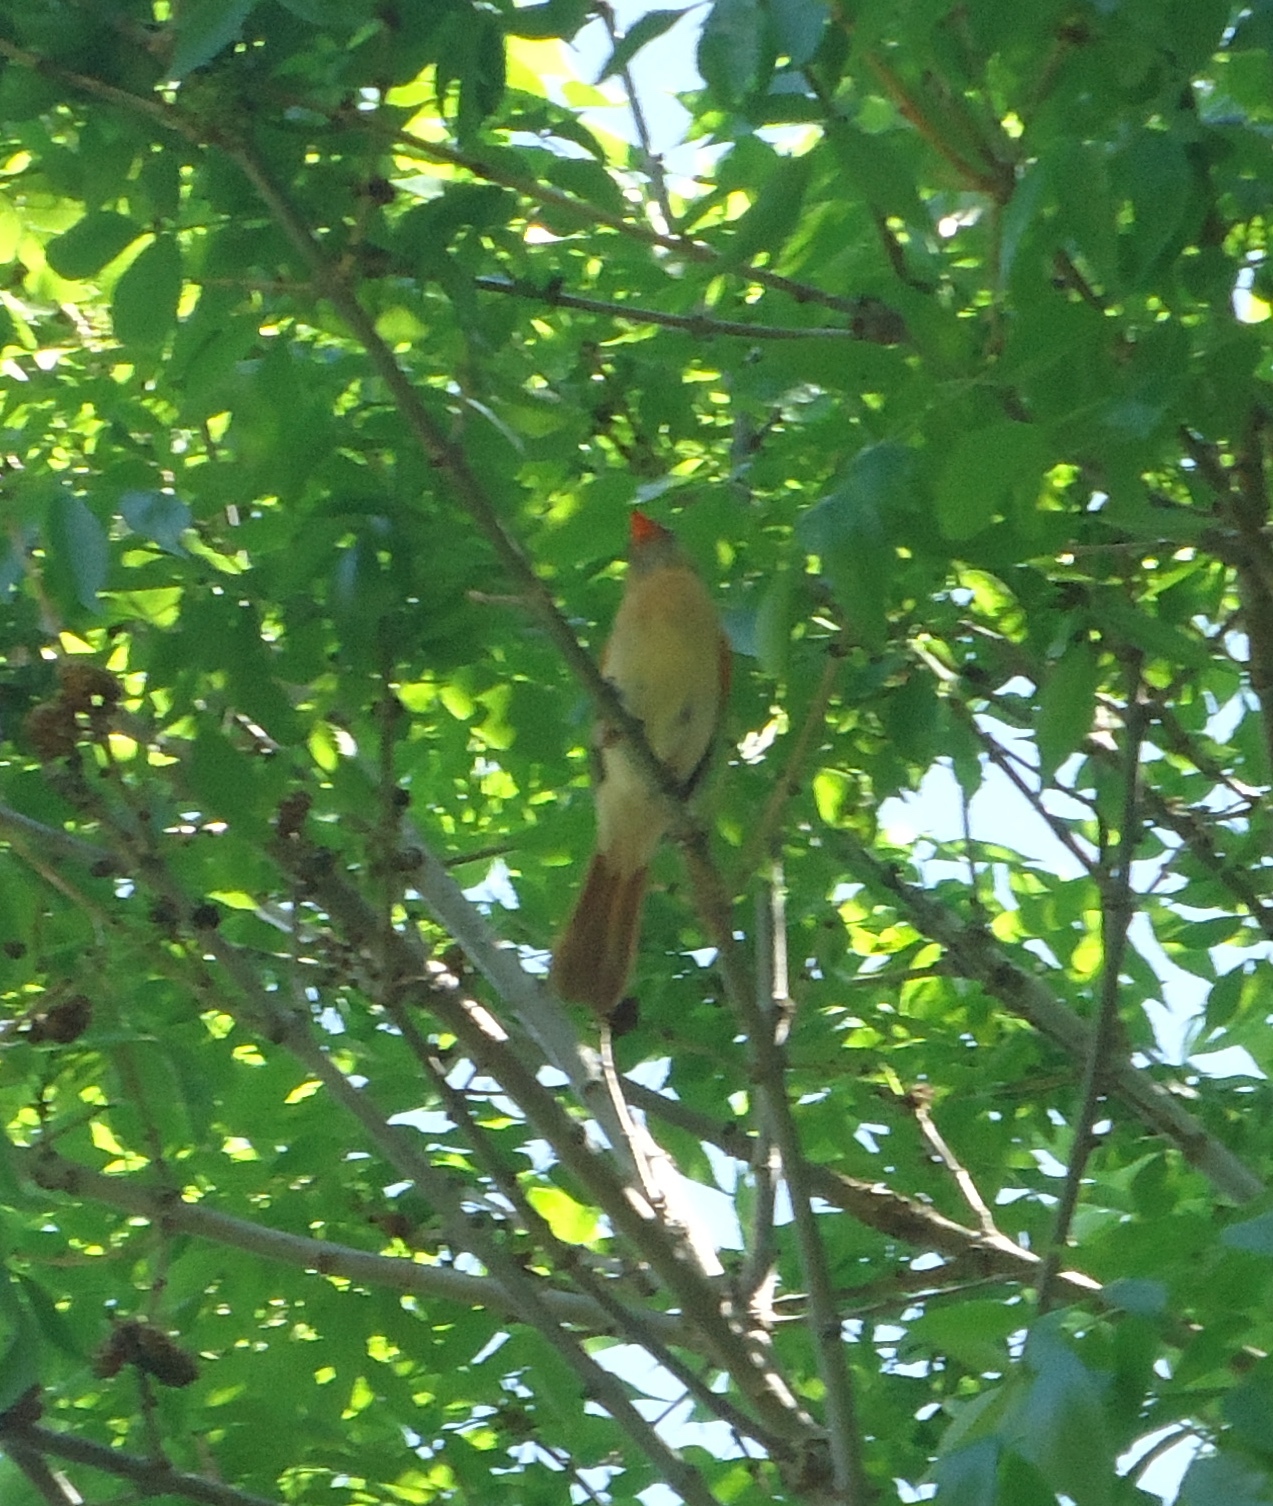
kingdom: Animalia
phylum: Chordata
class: Aves
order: Passeriformes
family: Cardinalidae
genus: Cardinalis
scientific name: Cardinalis cardinalis
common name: Northern cardinal
